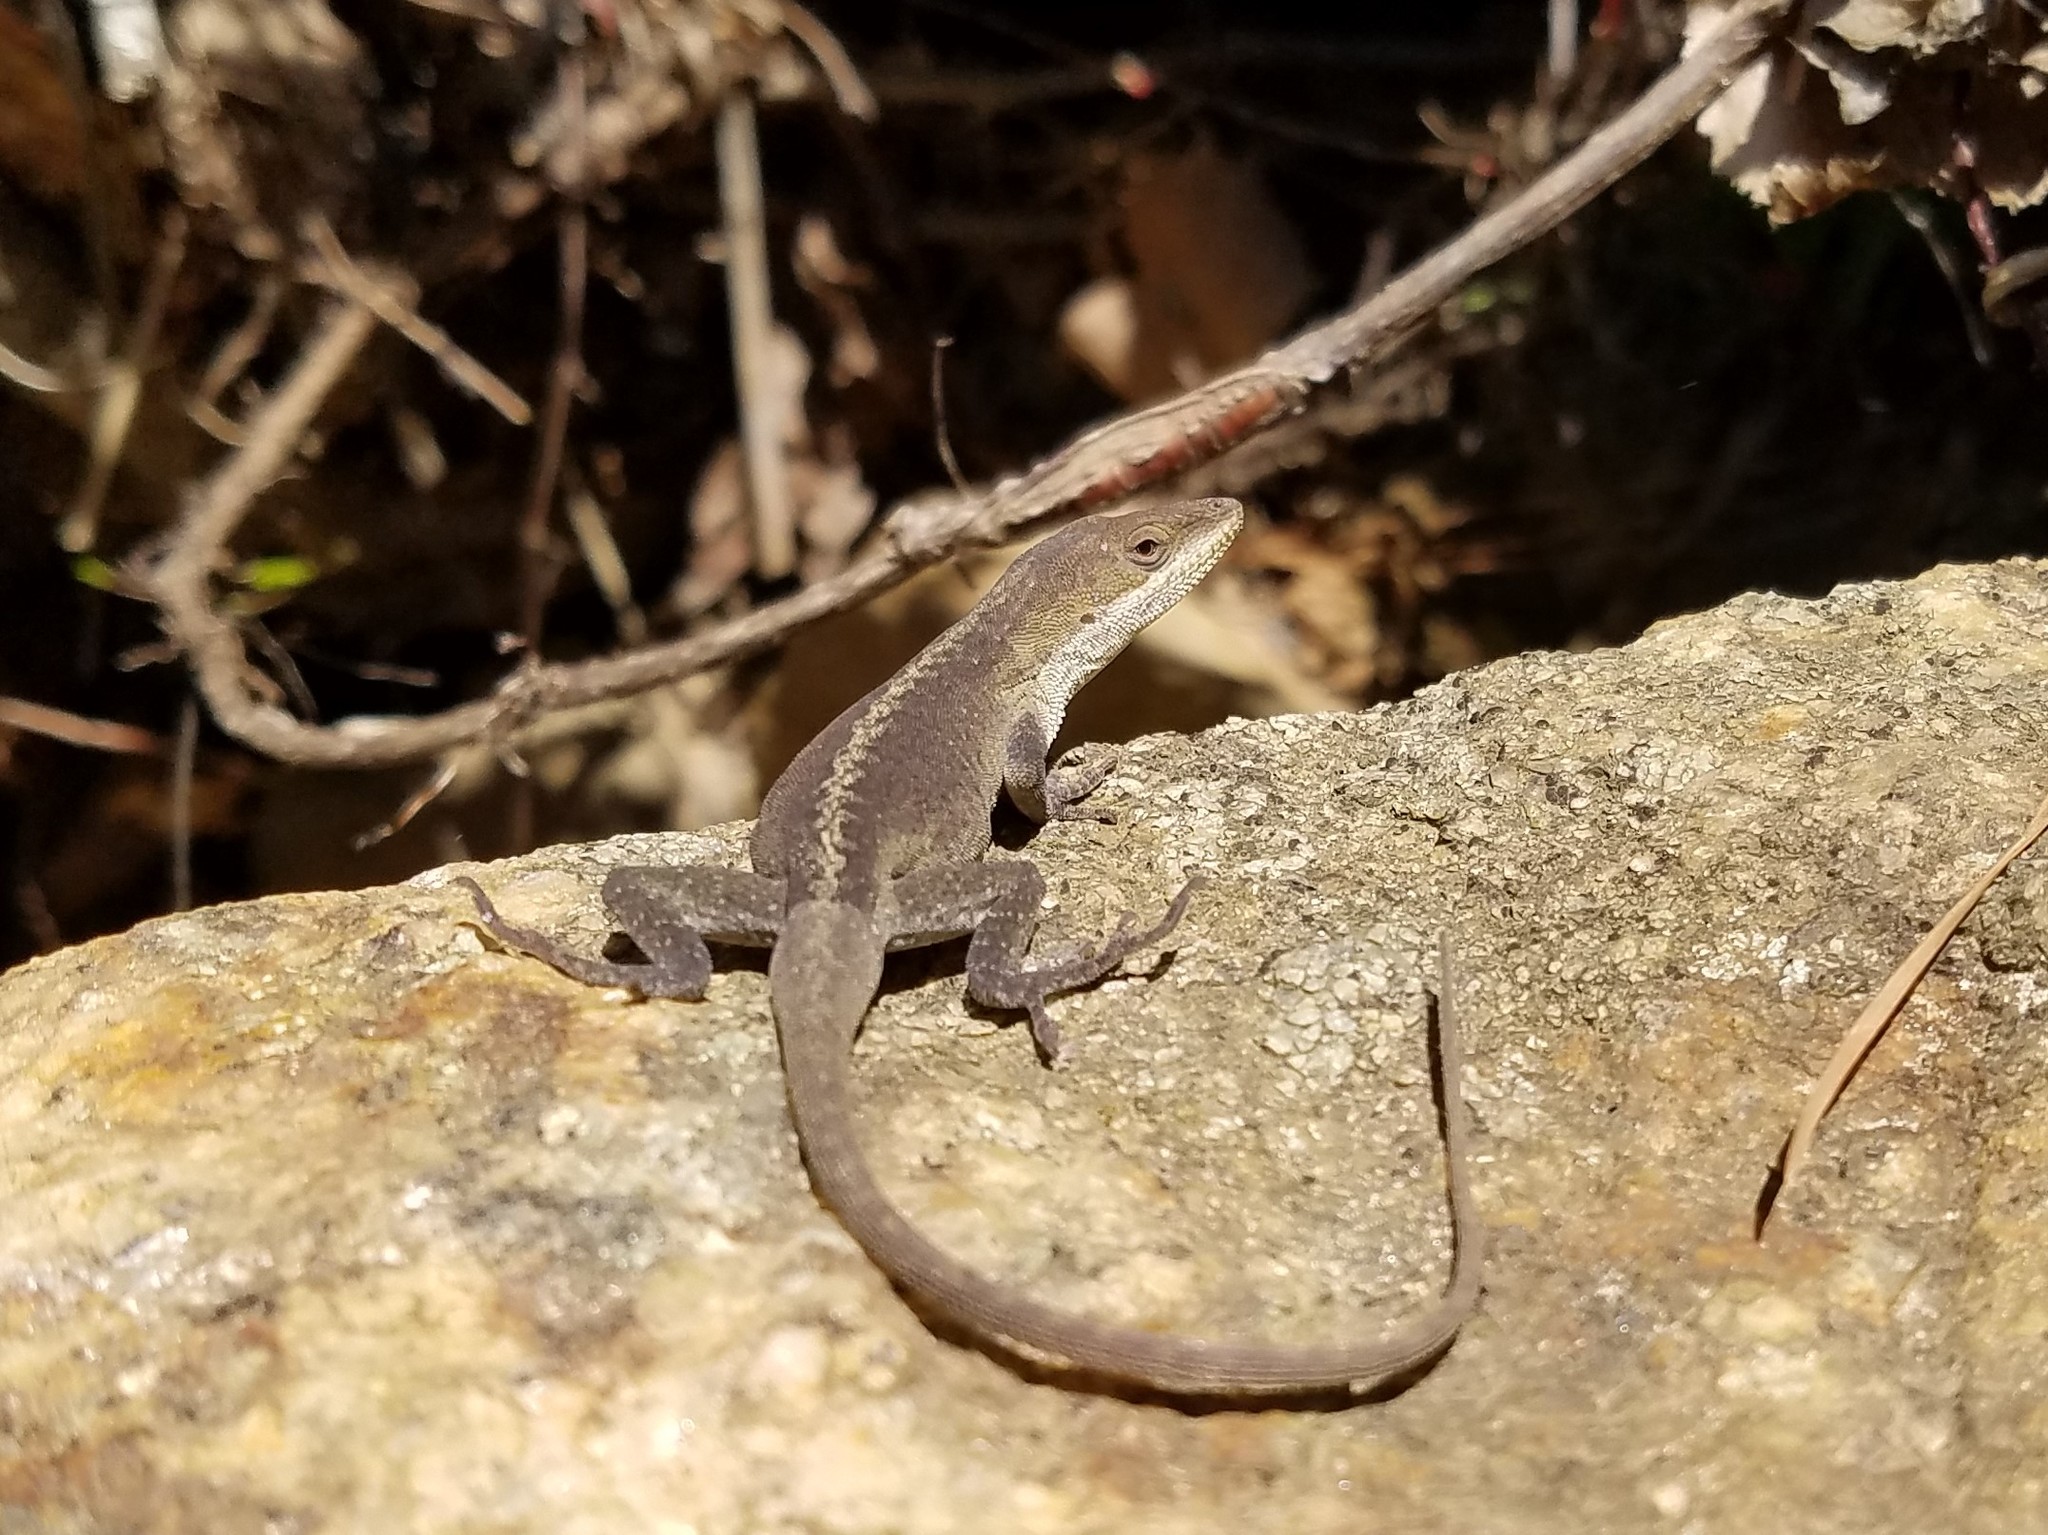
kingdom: Animalia
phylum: Chordata
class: Squamata
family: Dactyloidae
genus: Anolis
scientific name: Anolis carolinensis
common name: Green anole
